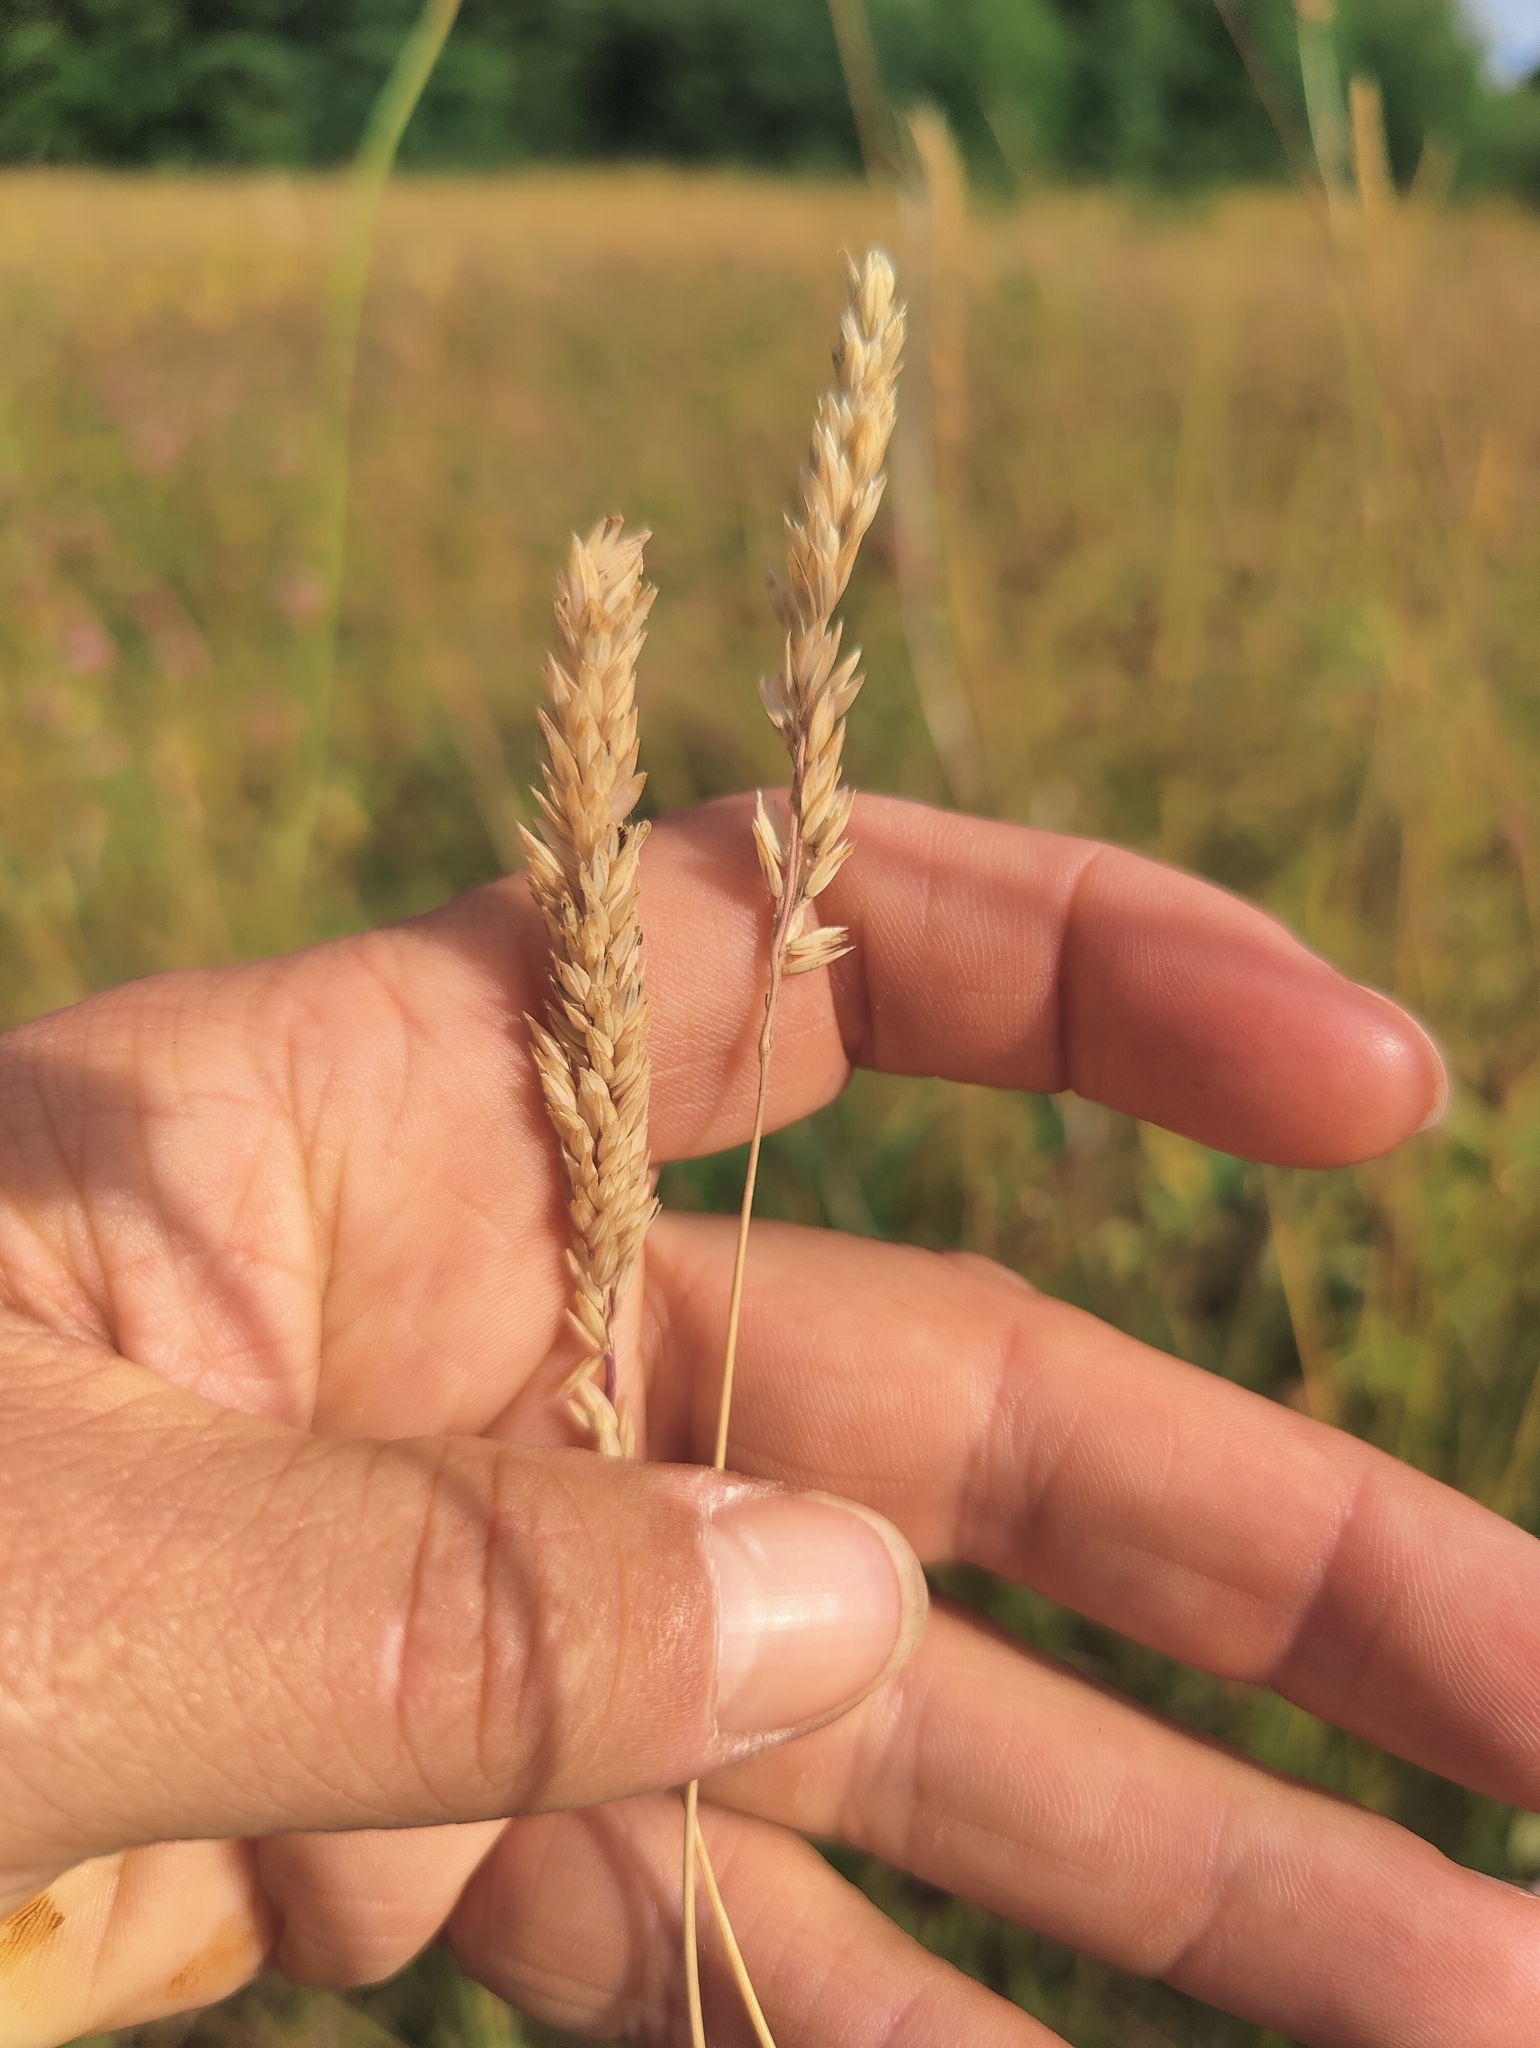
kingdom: Plantae
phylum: Tracheophyta
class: Liliopsida
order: Poales
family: Poaceae
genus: Holcus
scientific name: Holcus lanatus
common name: Yorkshire-fog
